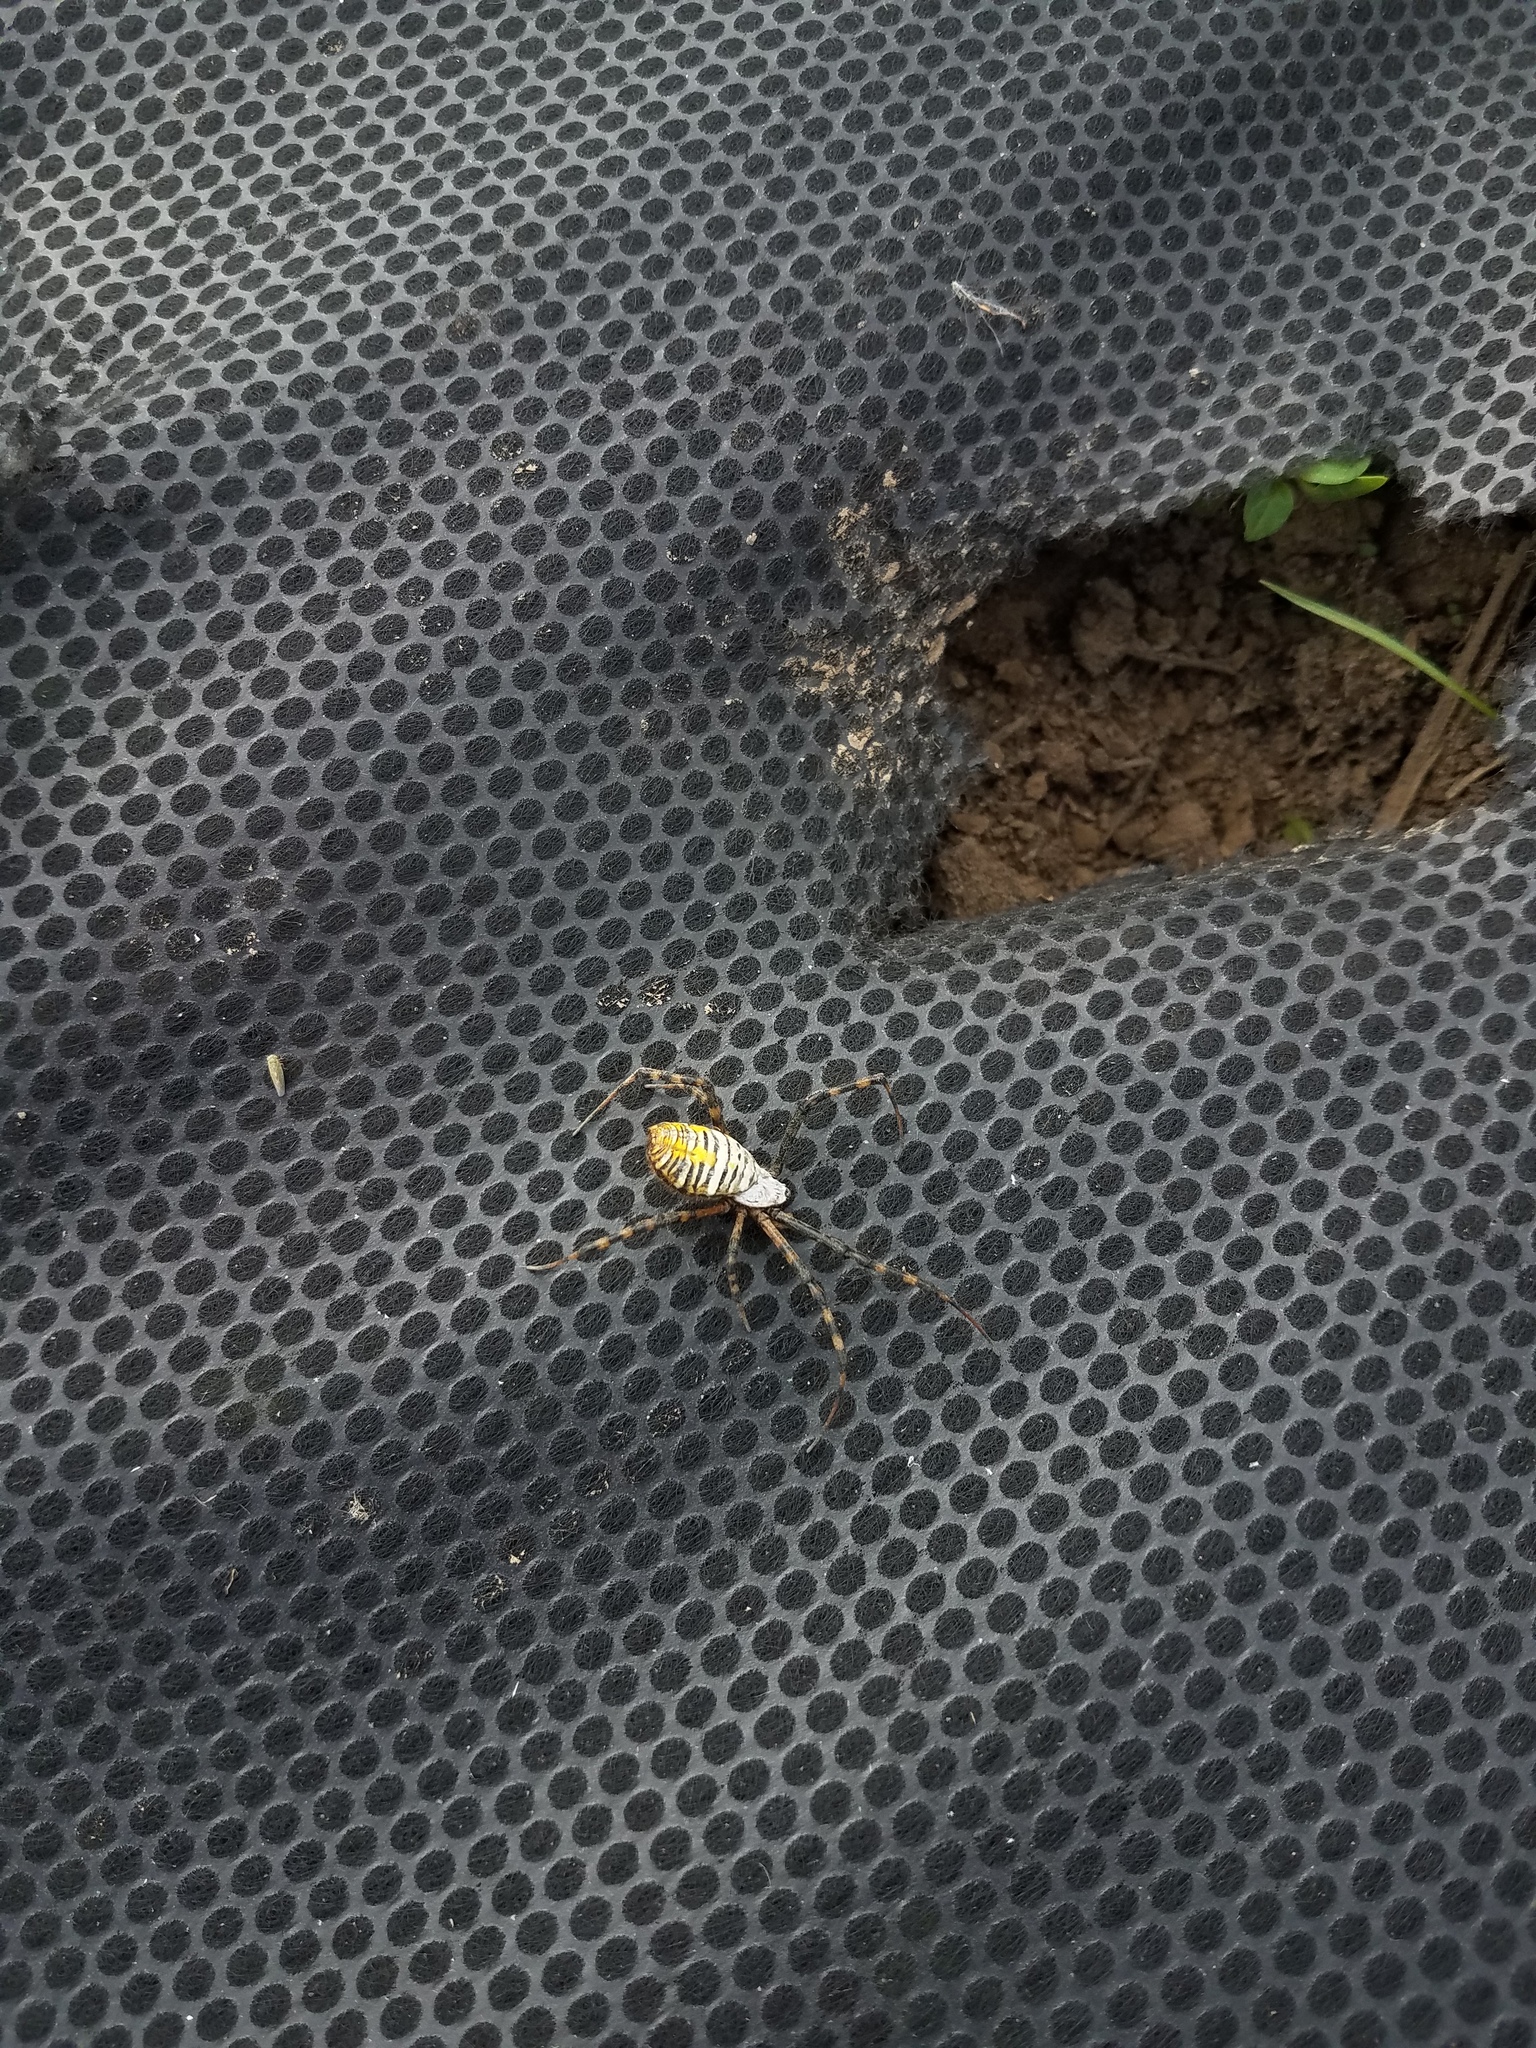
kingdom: Animalia
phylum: Arthropoda
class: Arachnida
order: Araneae
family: Araneidae
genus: Argiope
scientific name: Argiope trifasciata
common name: Banded garden spider
